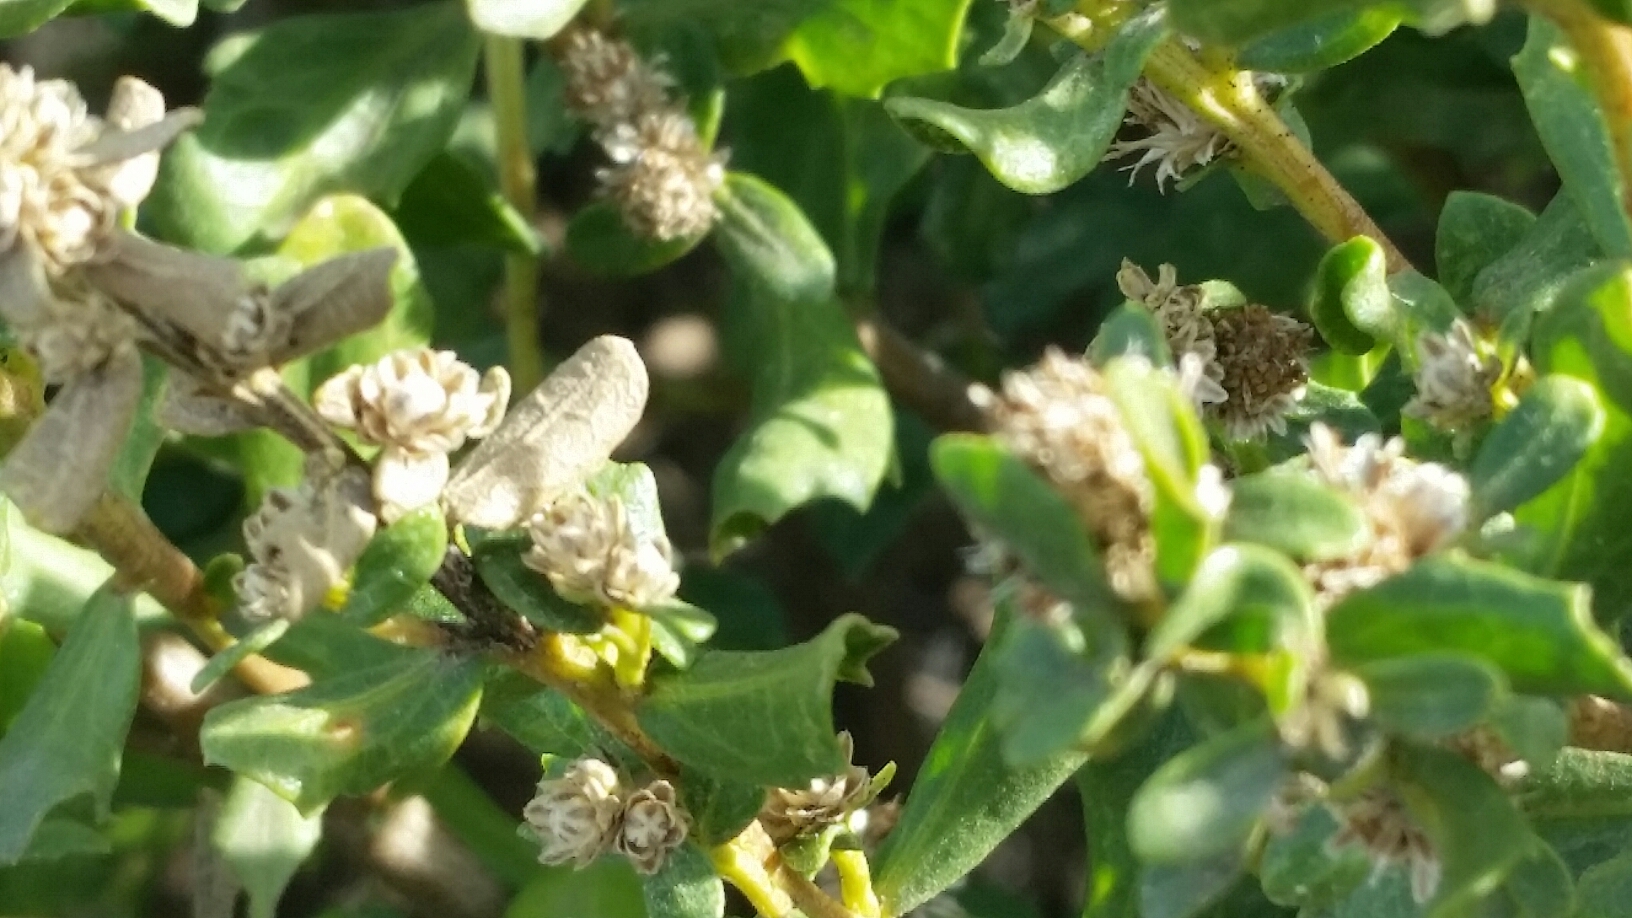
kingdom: Plantae
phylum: Tracheophyta
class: Magnoliopsida
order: Asterales
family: Asteraceae
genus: Baccharis
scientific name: Baccharis pilularis
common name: Coyotebrush
